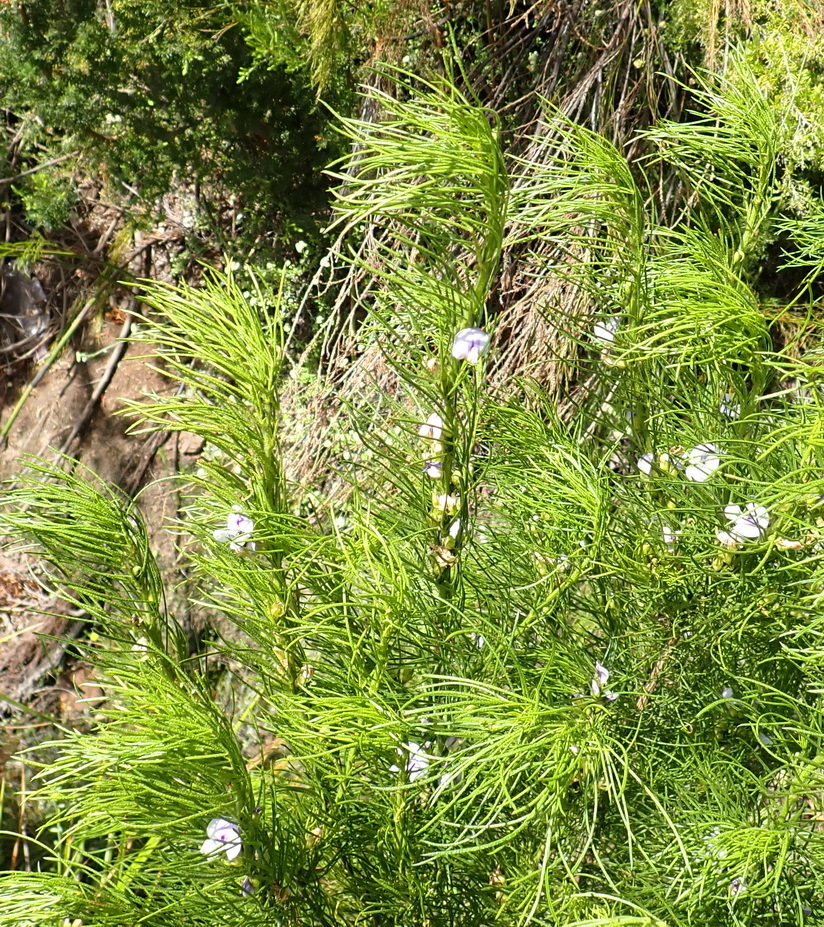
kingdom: Plantae
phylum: Tracheophyta
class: Magnoliopsida
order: Fabales
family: Fabaceae
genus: Psoralea
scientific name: Psoralea floccosa
